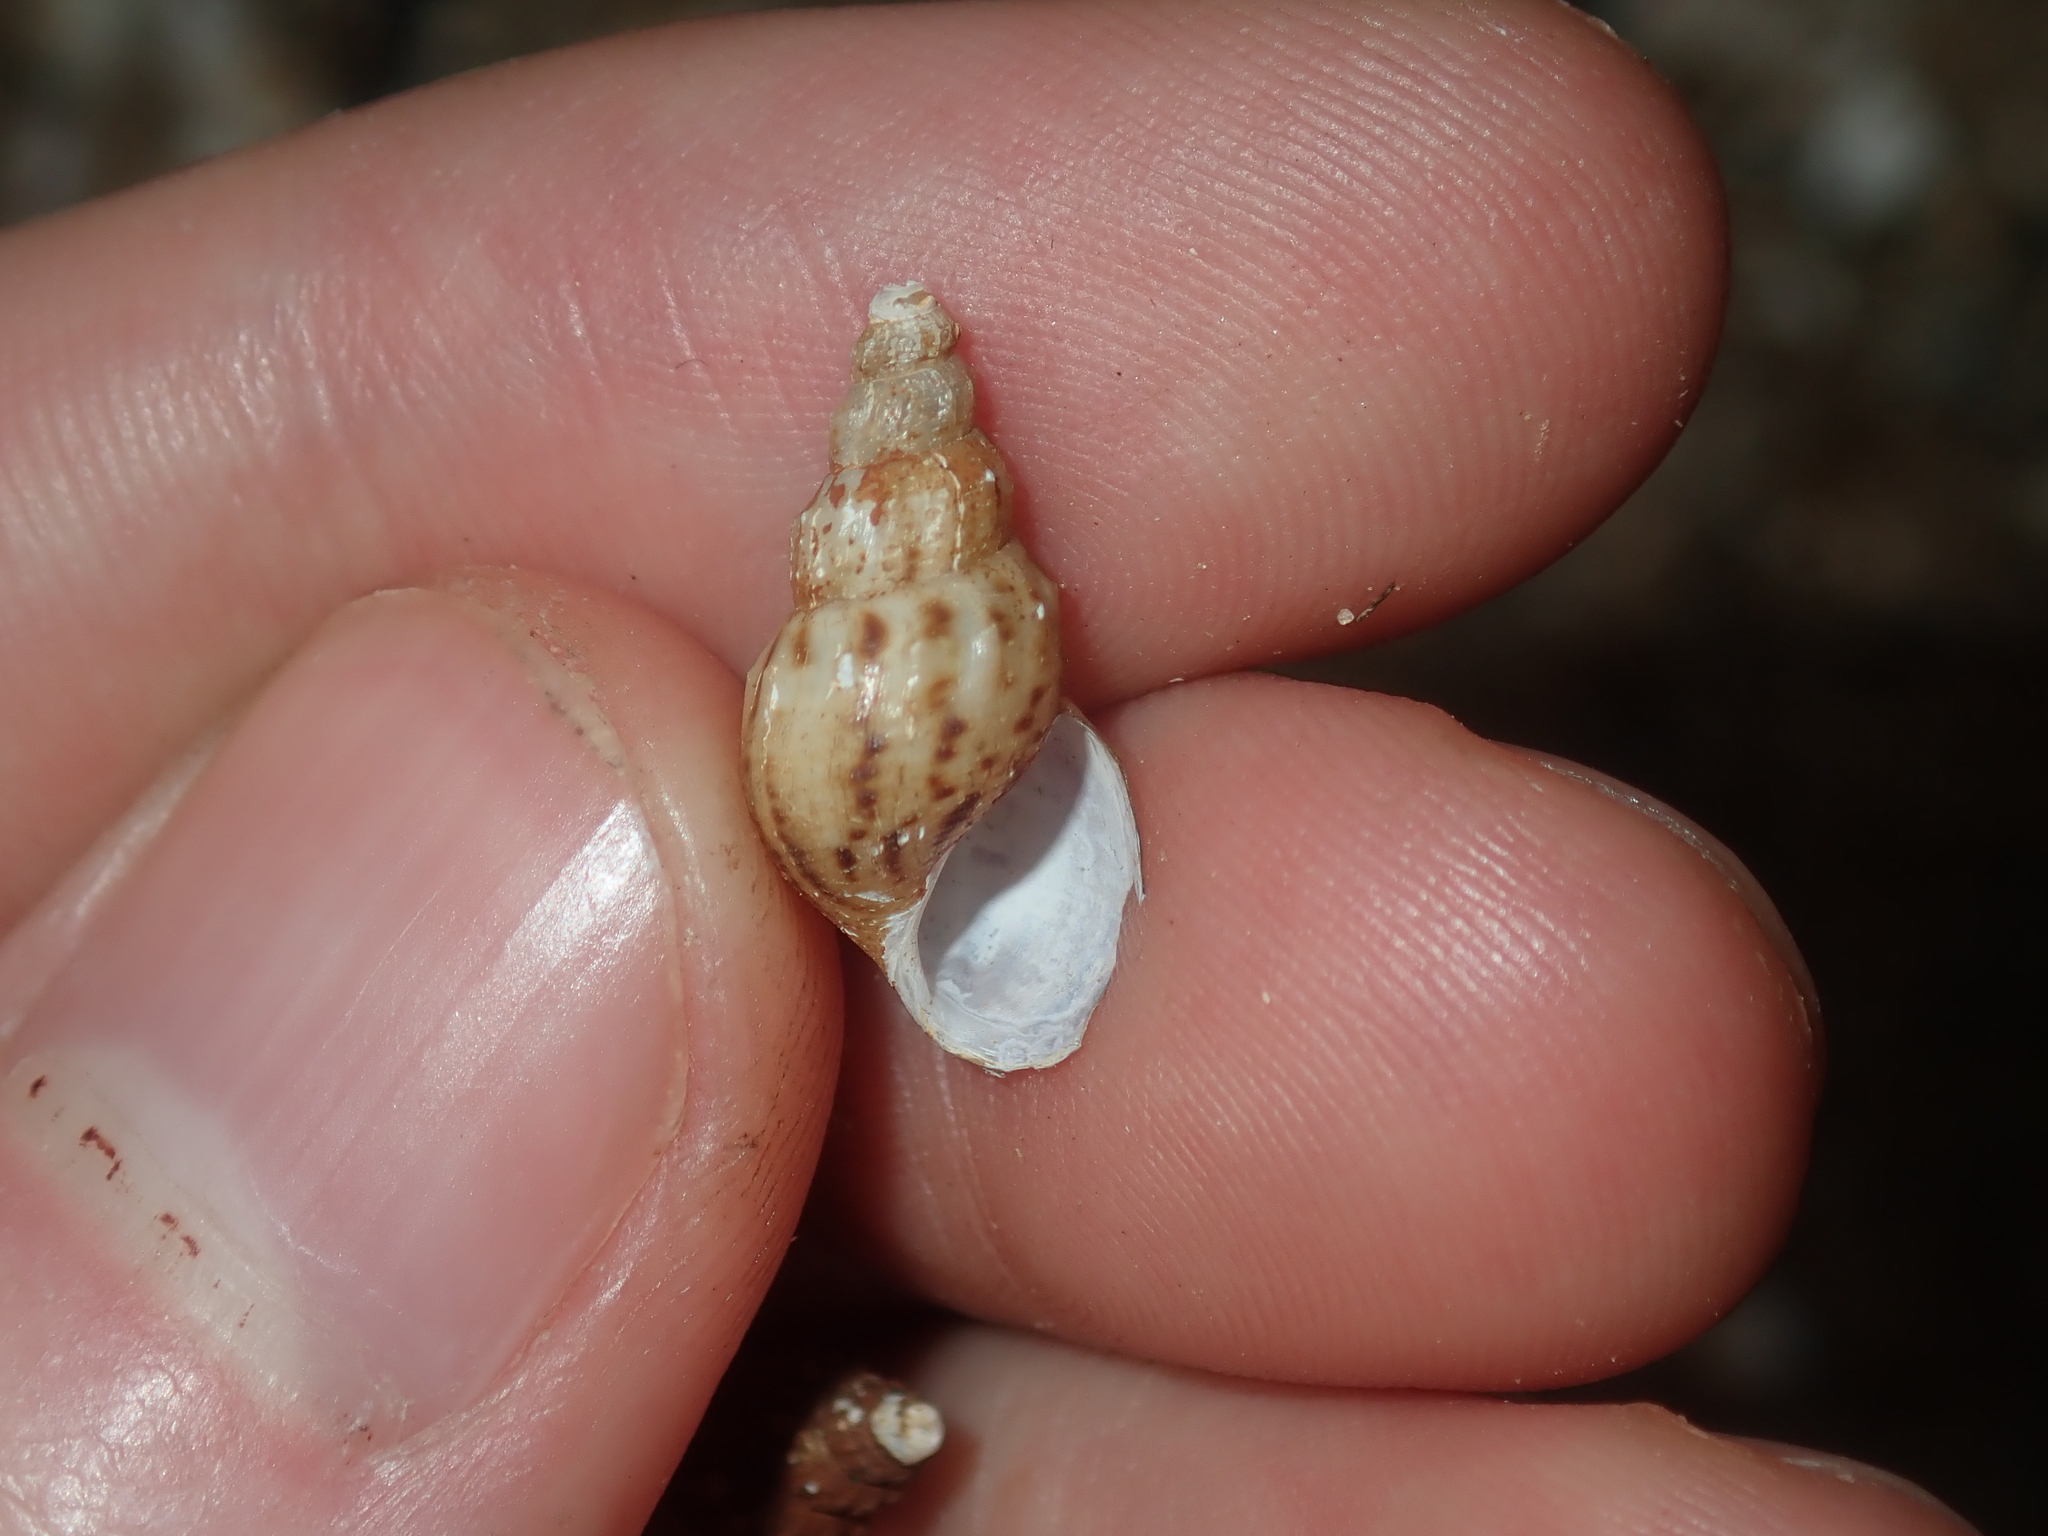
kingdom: Animalia
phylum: Mollusca
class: Gastropoda
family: Thiaridae
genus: Plotiopsis
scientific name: Plotiopsis balonnensis
